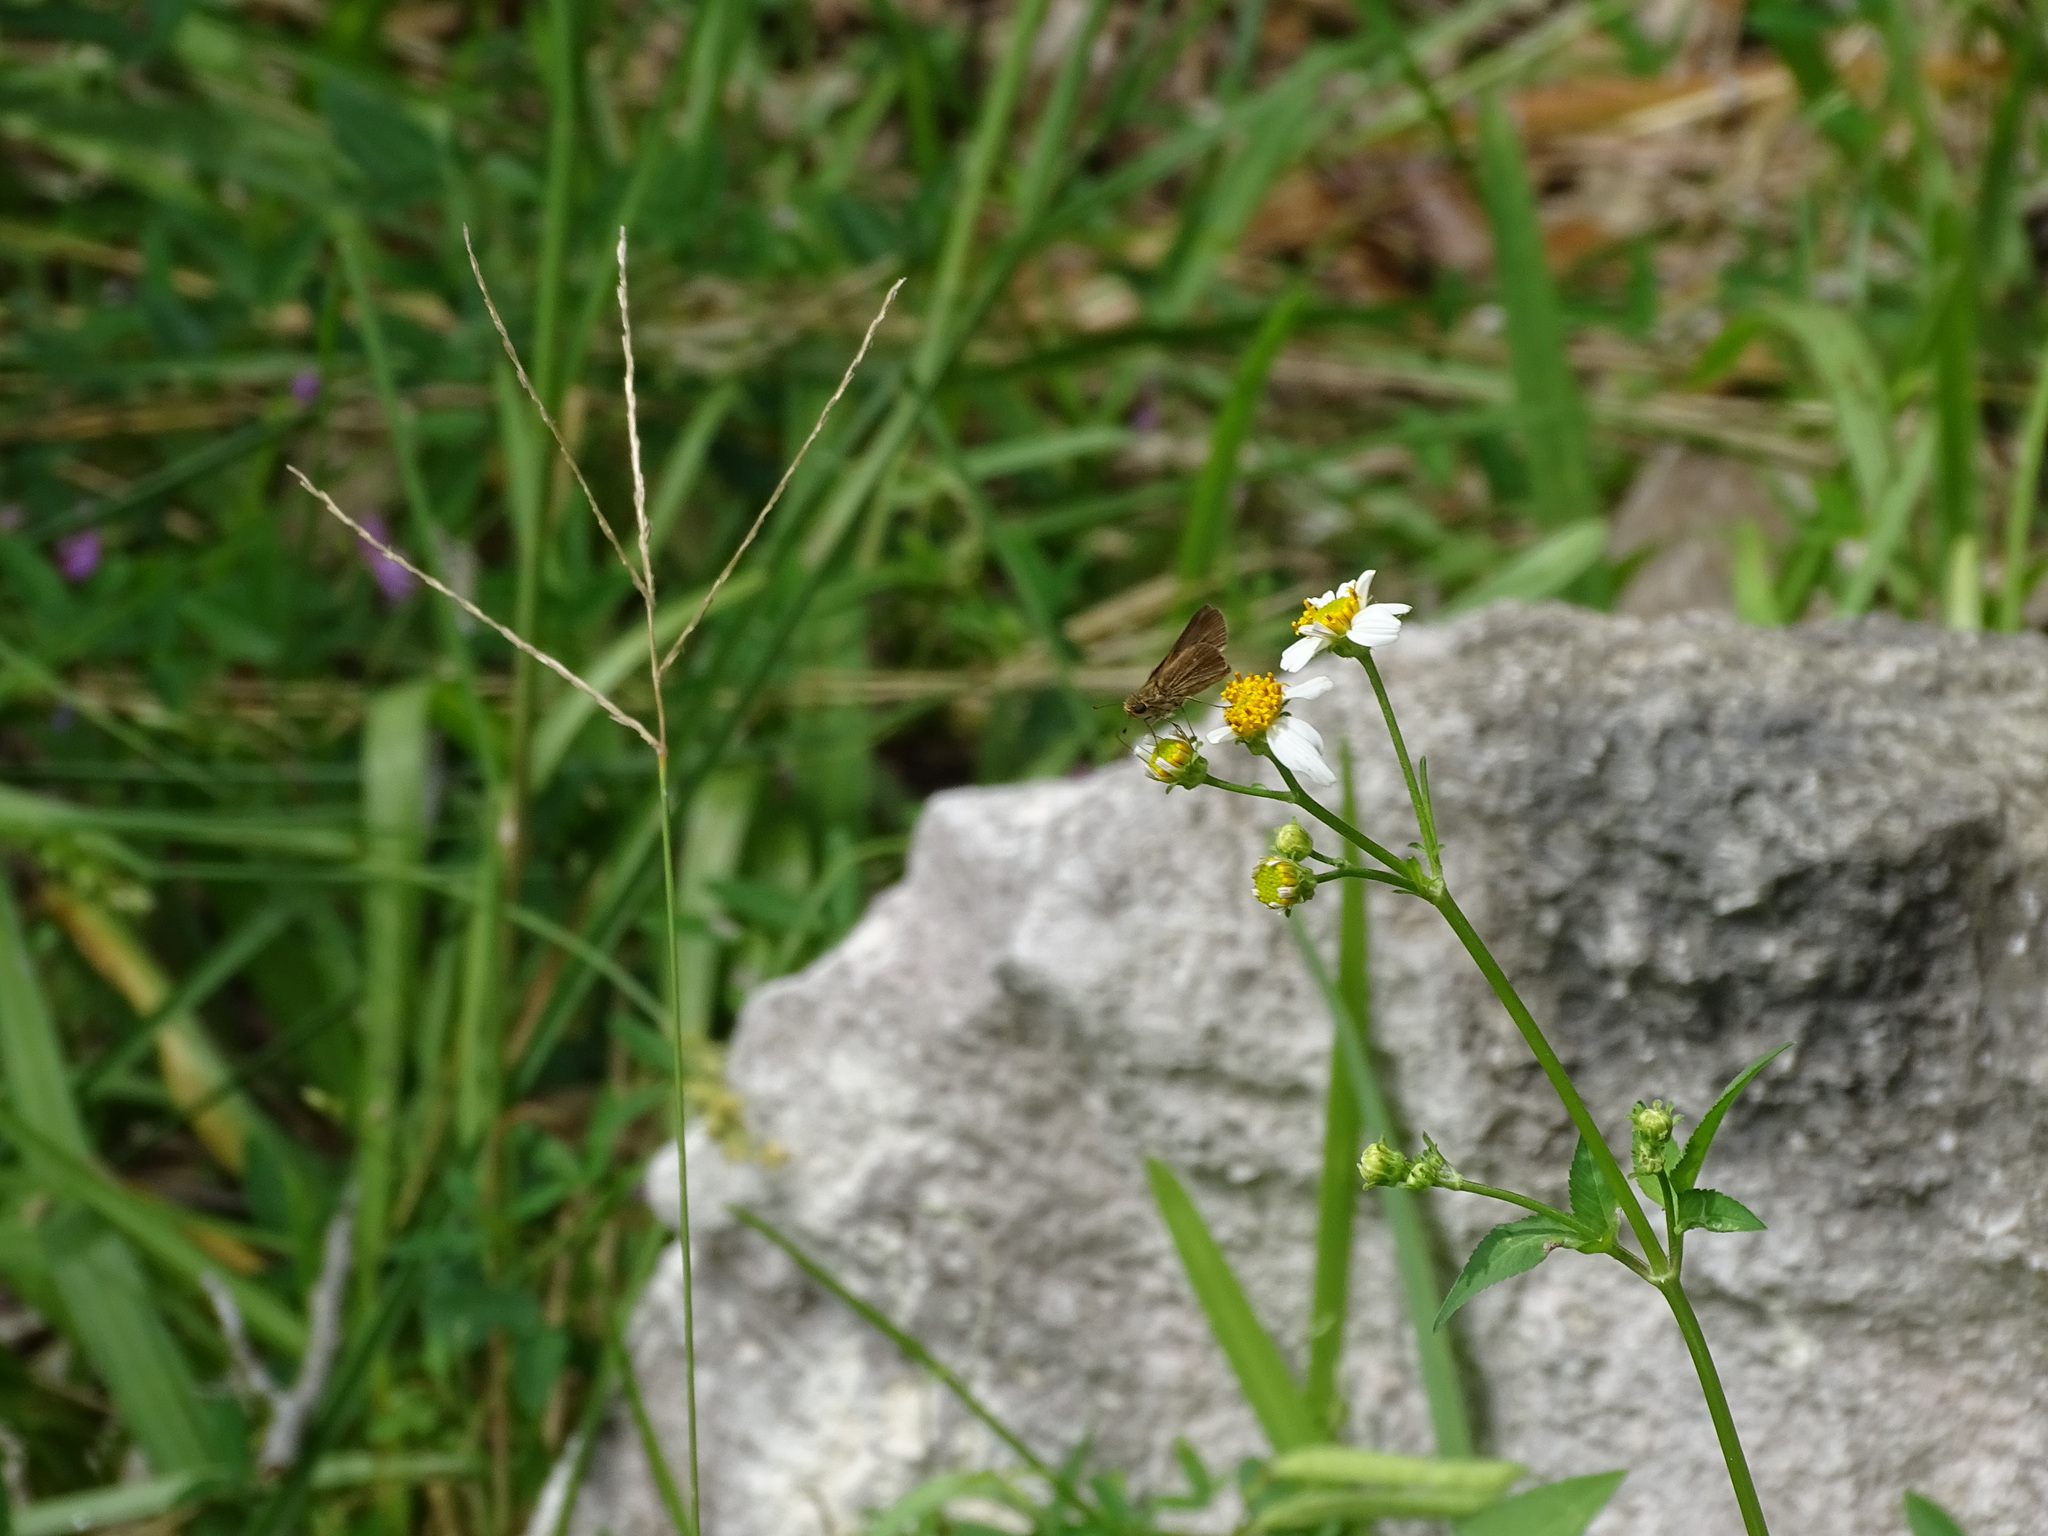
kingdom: Animalia
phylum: Arthropoda
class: Insecta
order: Lepidoptera
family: Hesperiidae
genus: Panoquina
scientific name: Panoquina panoquinoides
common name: Beach skipper
